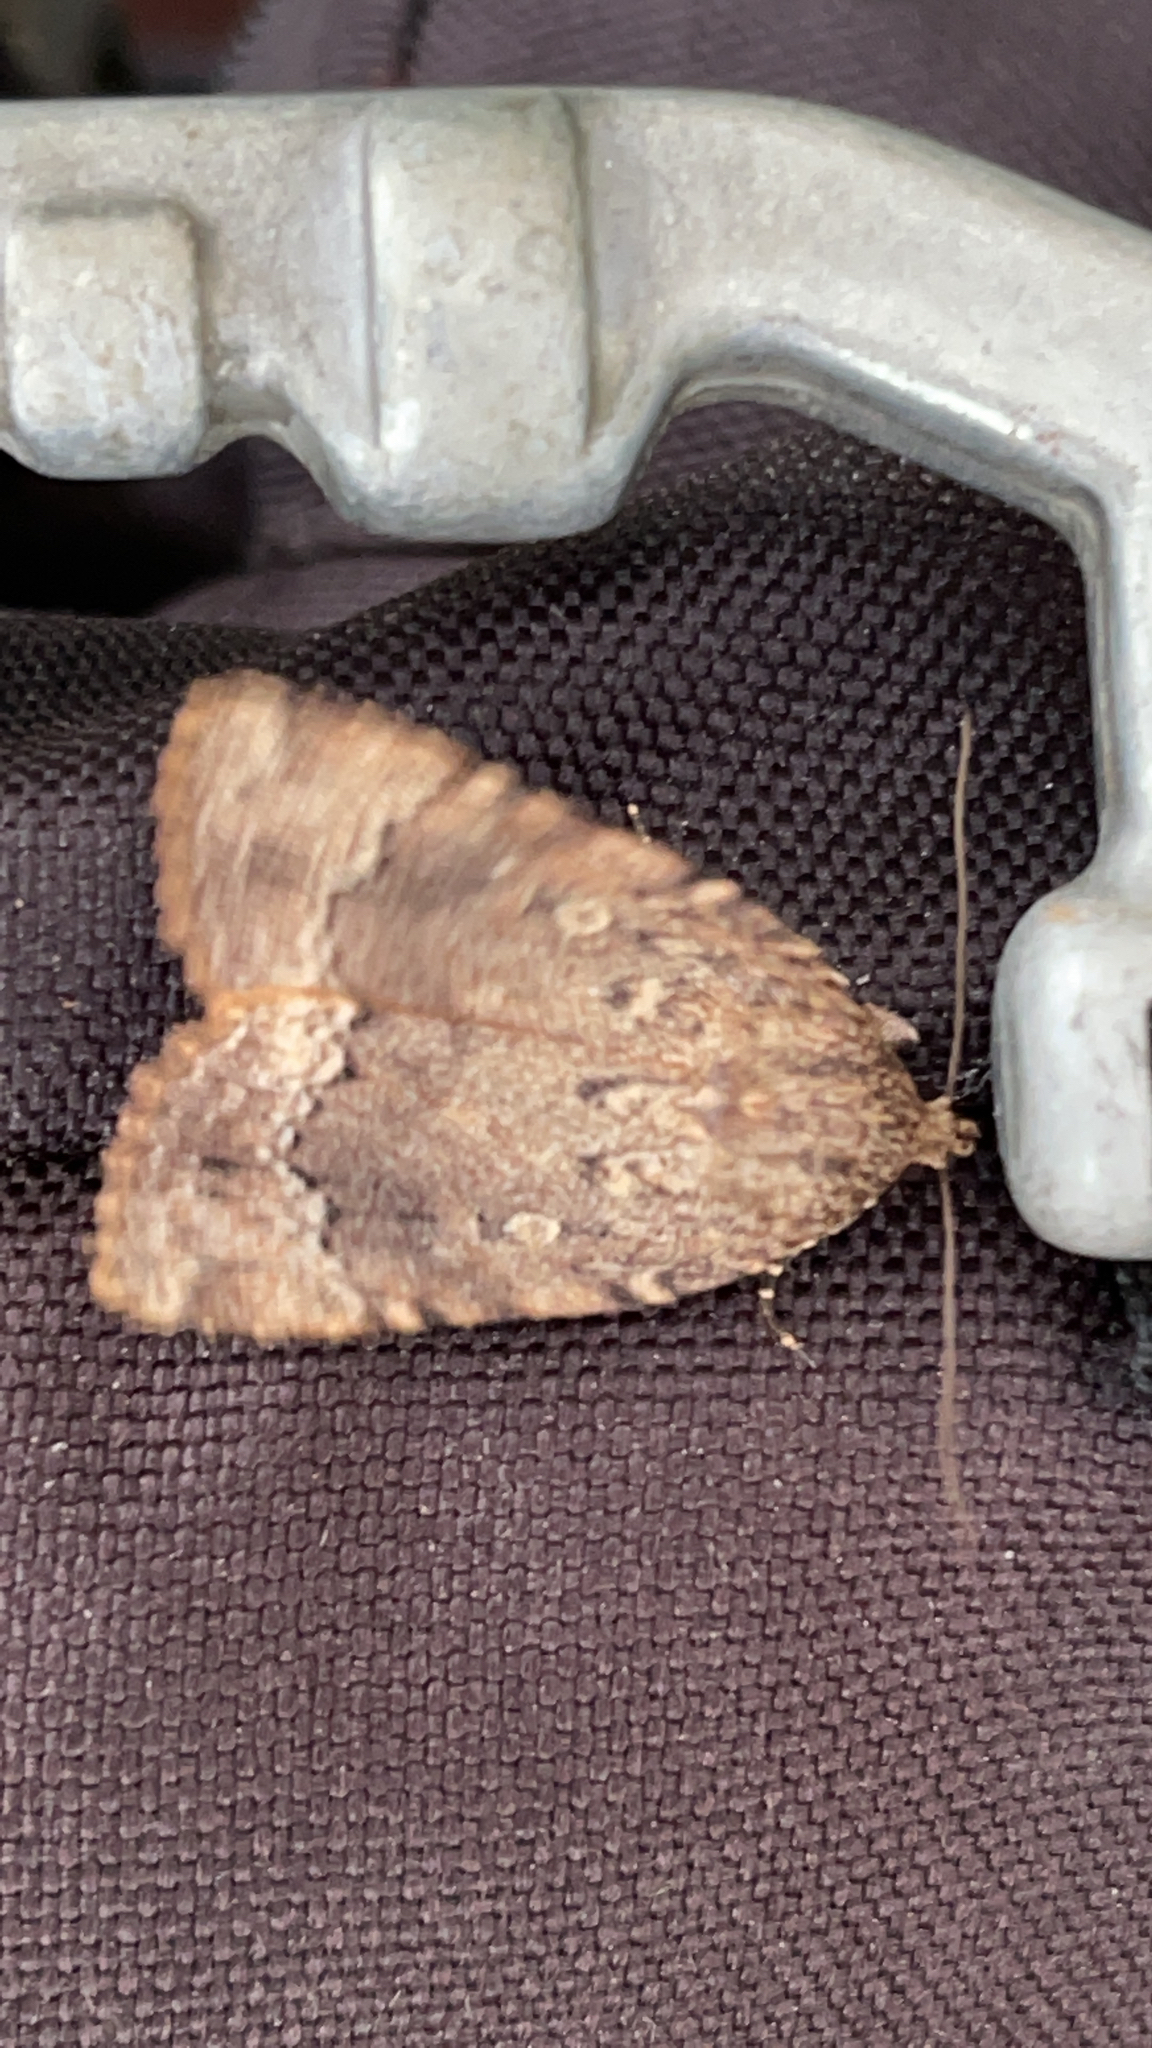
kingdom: Animalia
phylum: Arthropoda
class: Insecta
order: Lepidoptera
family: Noctuidae
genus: Amphipyra
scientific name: Amphipyra pyramidoides
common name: American copper underwing
